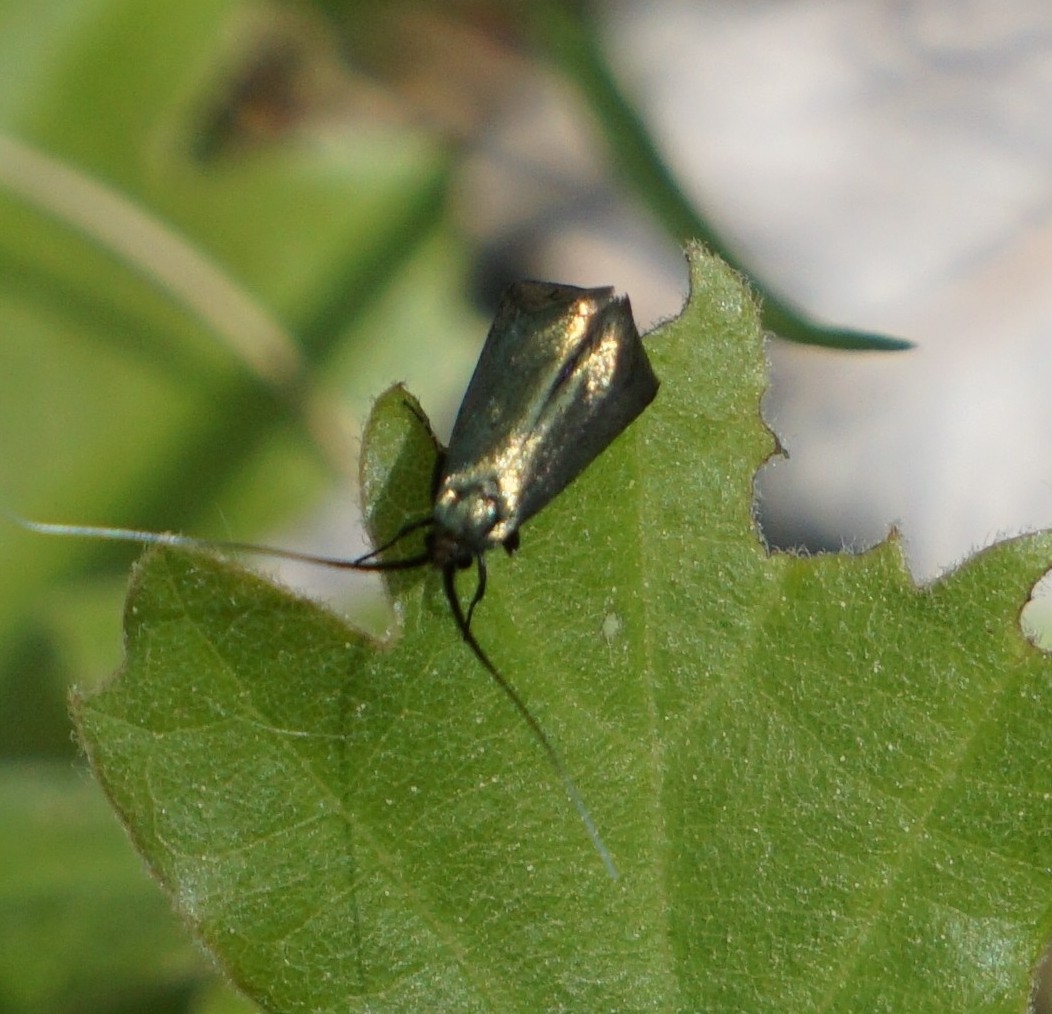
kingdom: Animalia
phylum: Arthropoda
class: Insecta
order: Lepidoptera
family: Adelidae
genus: Adela
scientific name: Adela viridella
